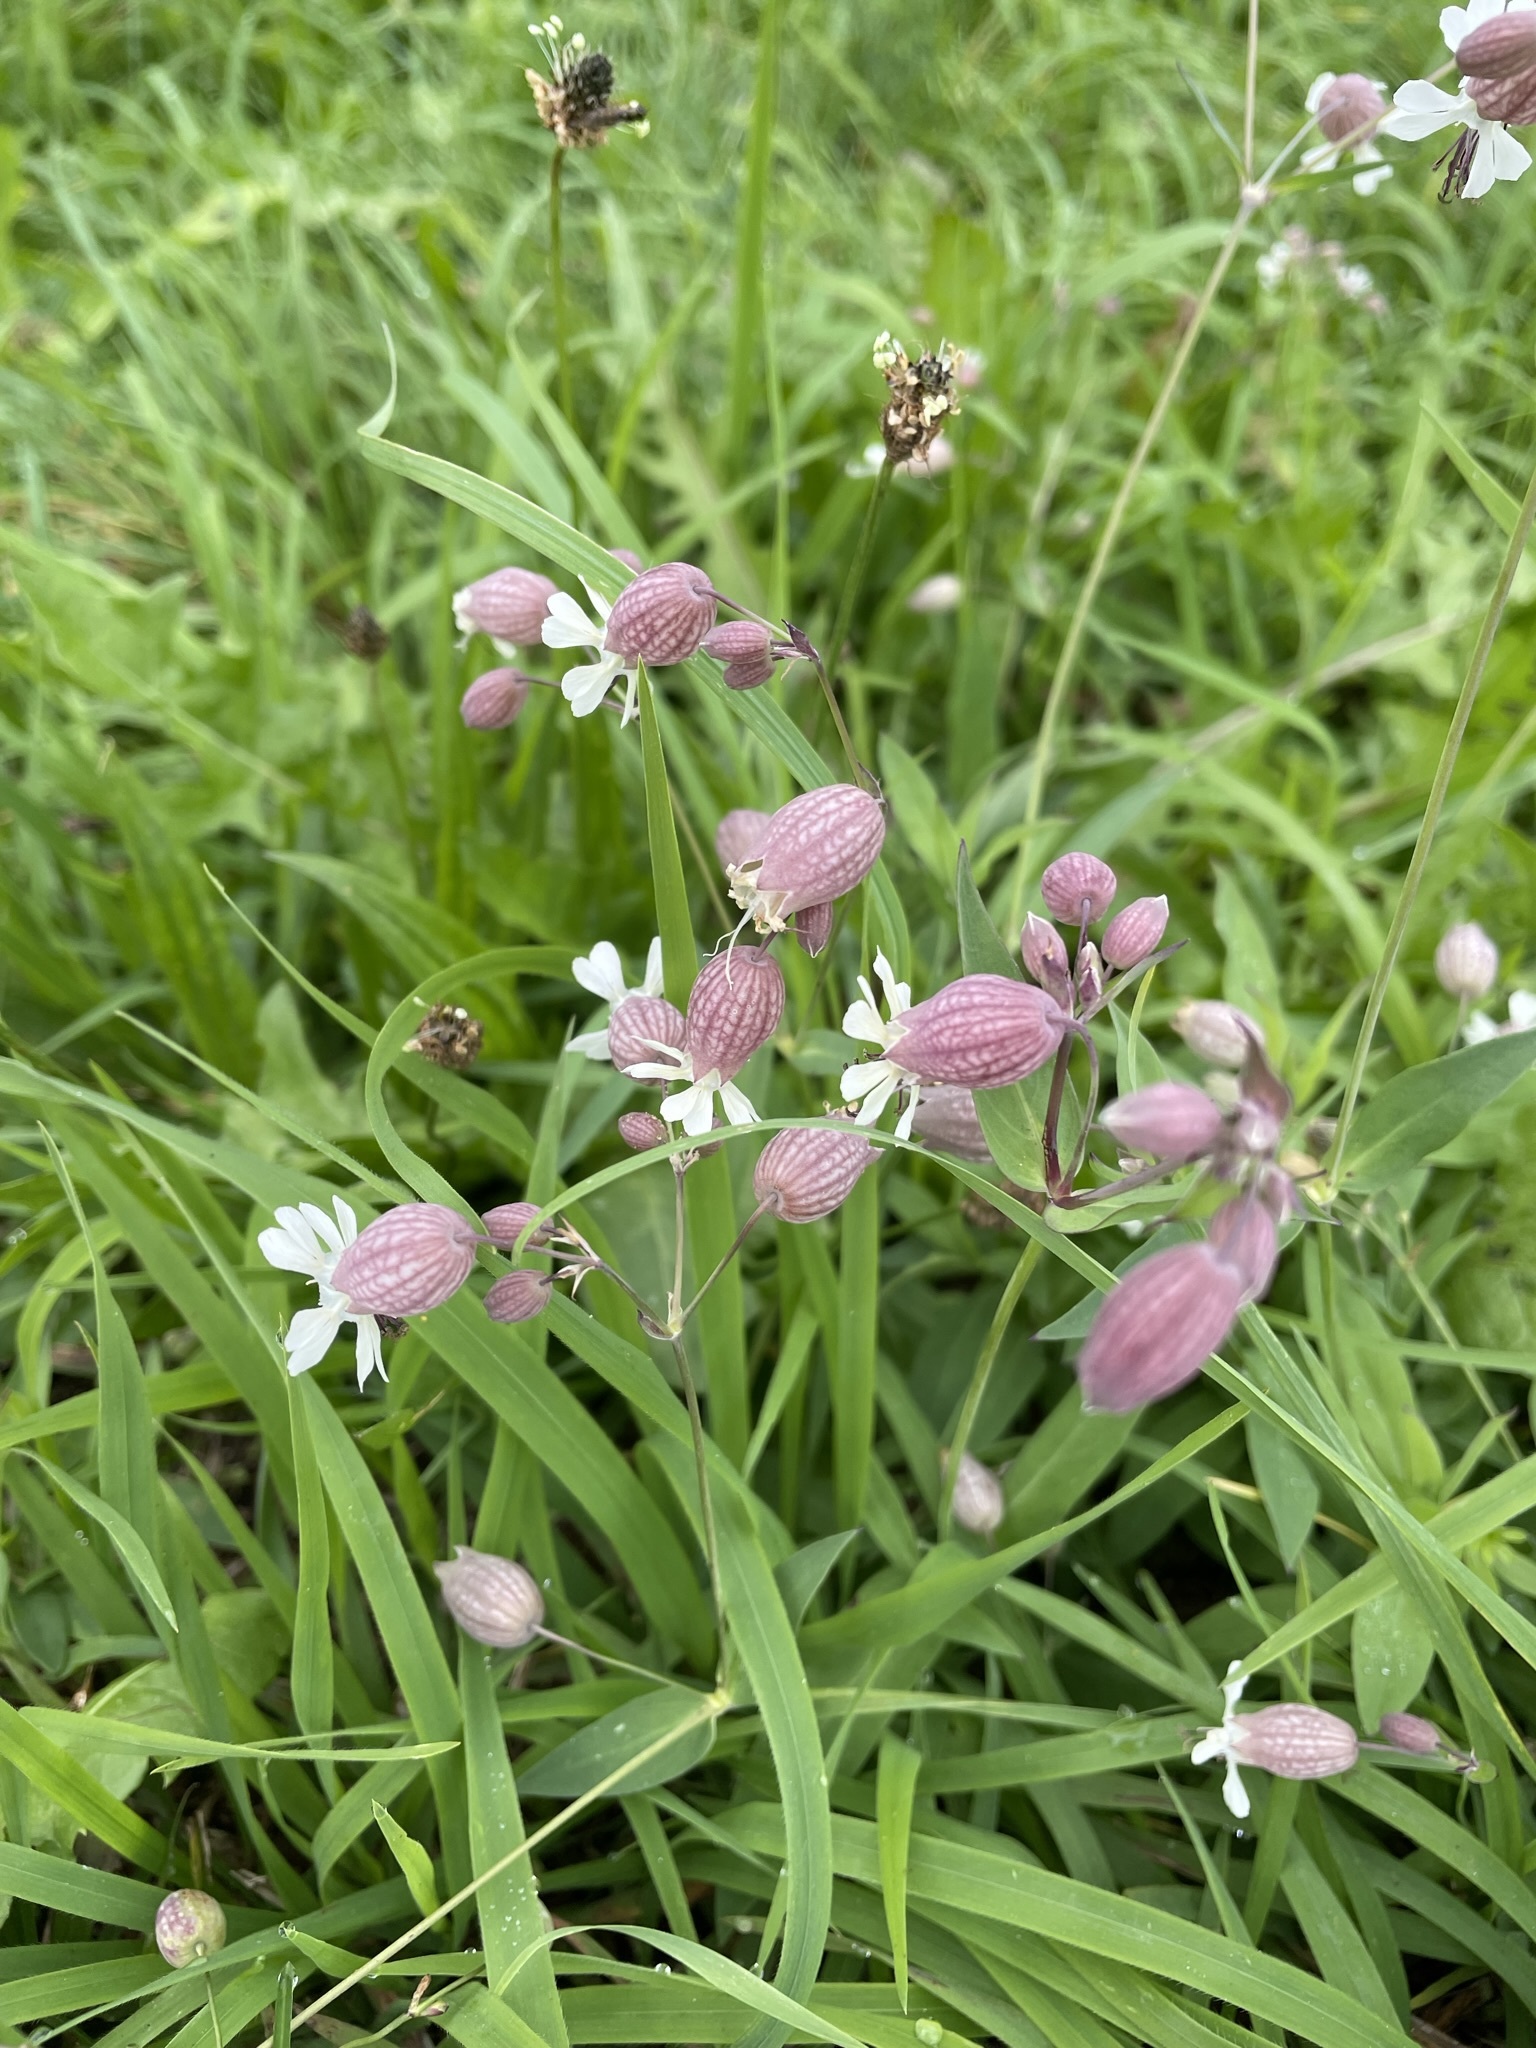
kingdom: Plantae
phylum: Tracheophyta
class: Magnoliopsida
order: Caryophyllales
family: Caryophyllaceae
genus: Silene
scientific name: Silene vulgaris
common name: Bladder campion
